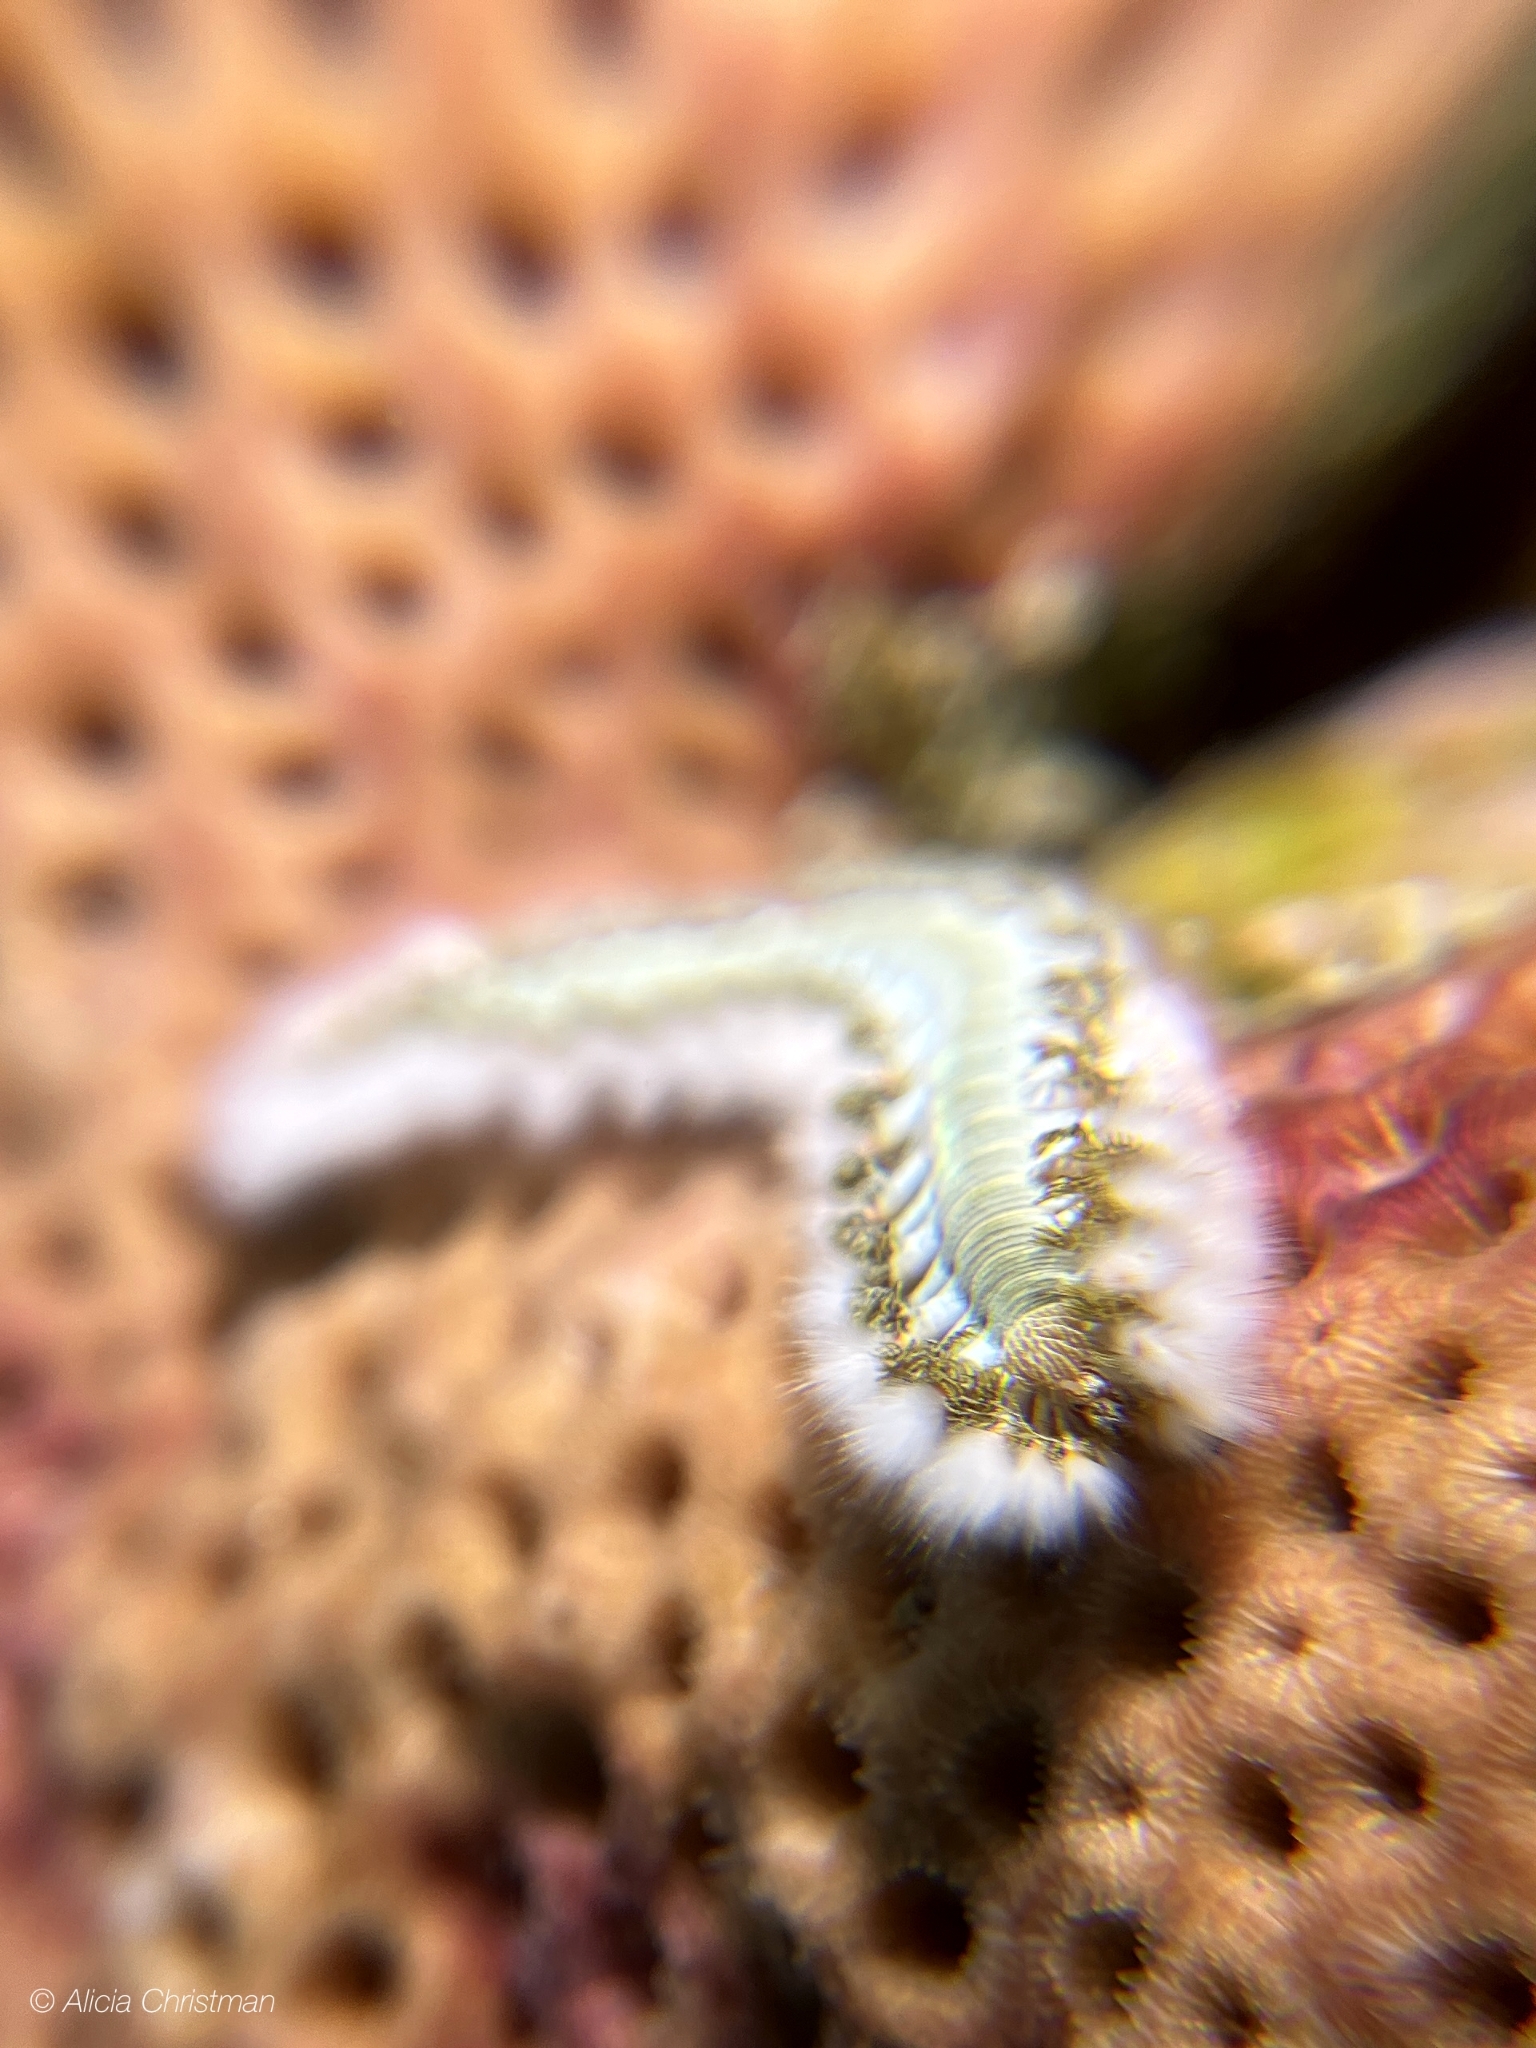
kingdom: Animalia
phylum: Annelida
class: Polychaeta
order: Amphinomida
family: Amphinomidae
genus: Hermodice
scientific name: Hermodice carunculata
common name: Bearded fireworm
